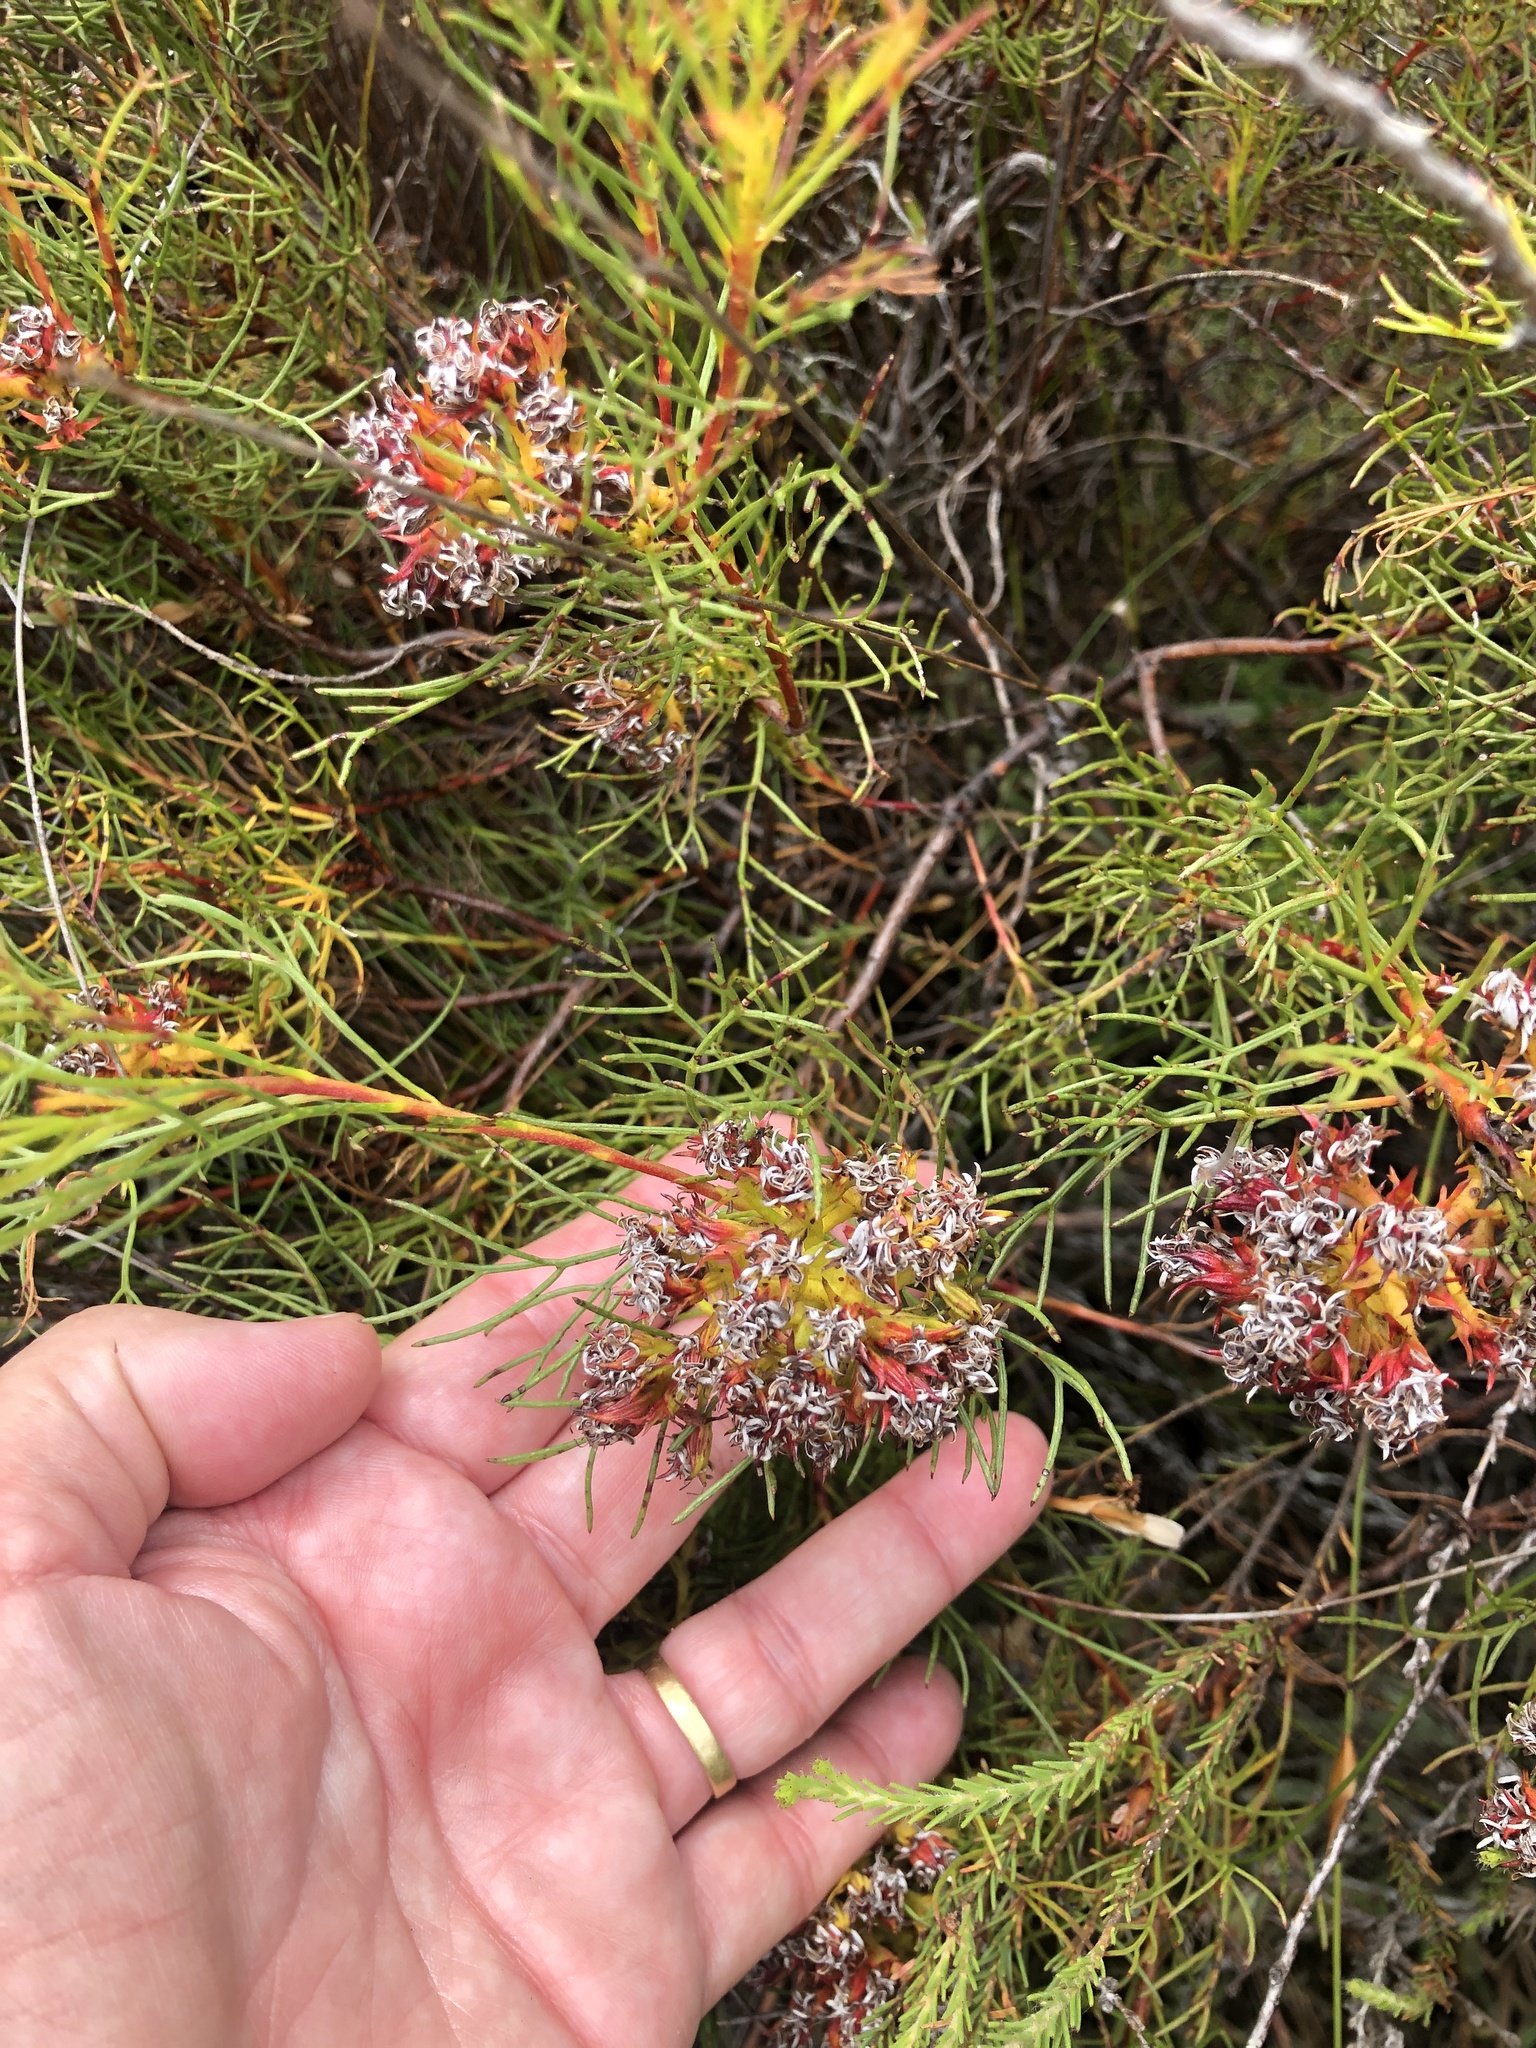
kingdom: Plantae
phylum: Tracheophyta
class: Magnoliopsida
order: Proteales
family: Proteaceae
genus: Serruria
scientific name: Serruria bolusii
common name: Agulhas spiderhead
